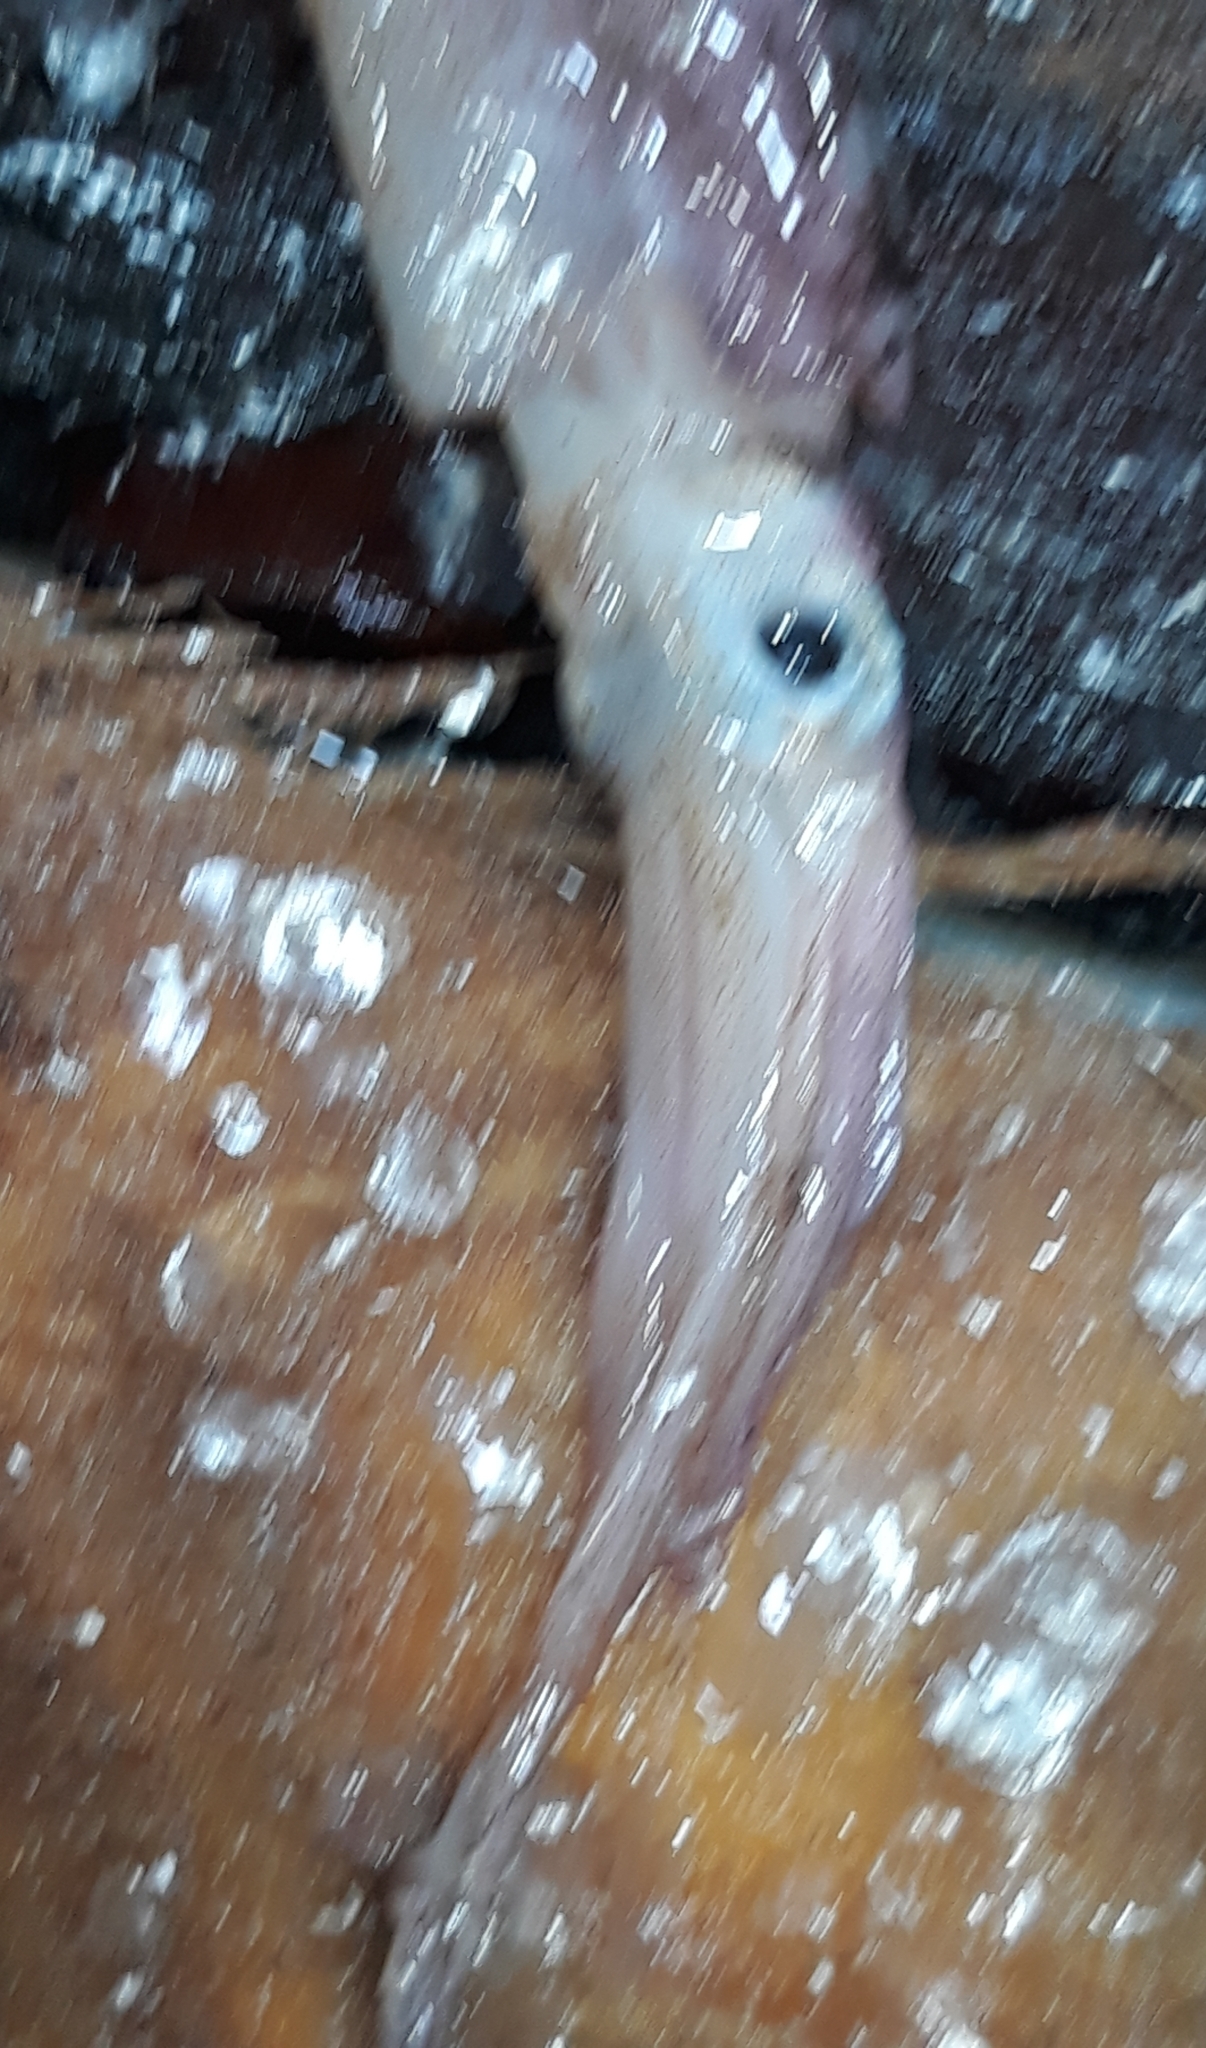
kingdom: Animalia
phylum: Mollusca
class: Cephalopoda
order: Oegopsida
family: Ommastrephidae
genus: Illex
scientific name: Illex coindetii
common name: Broadtail shortfin squid
